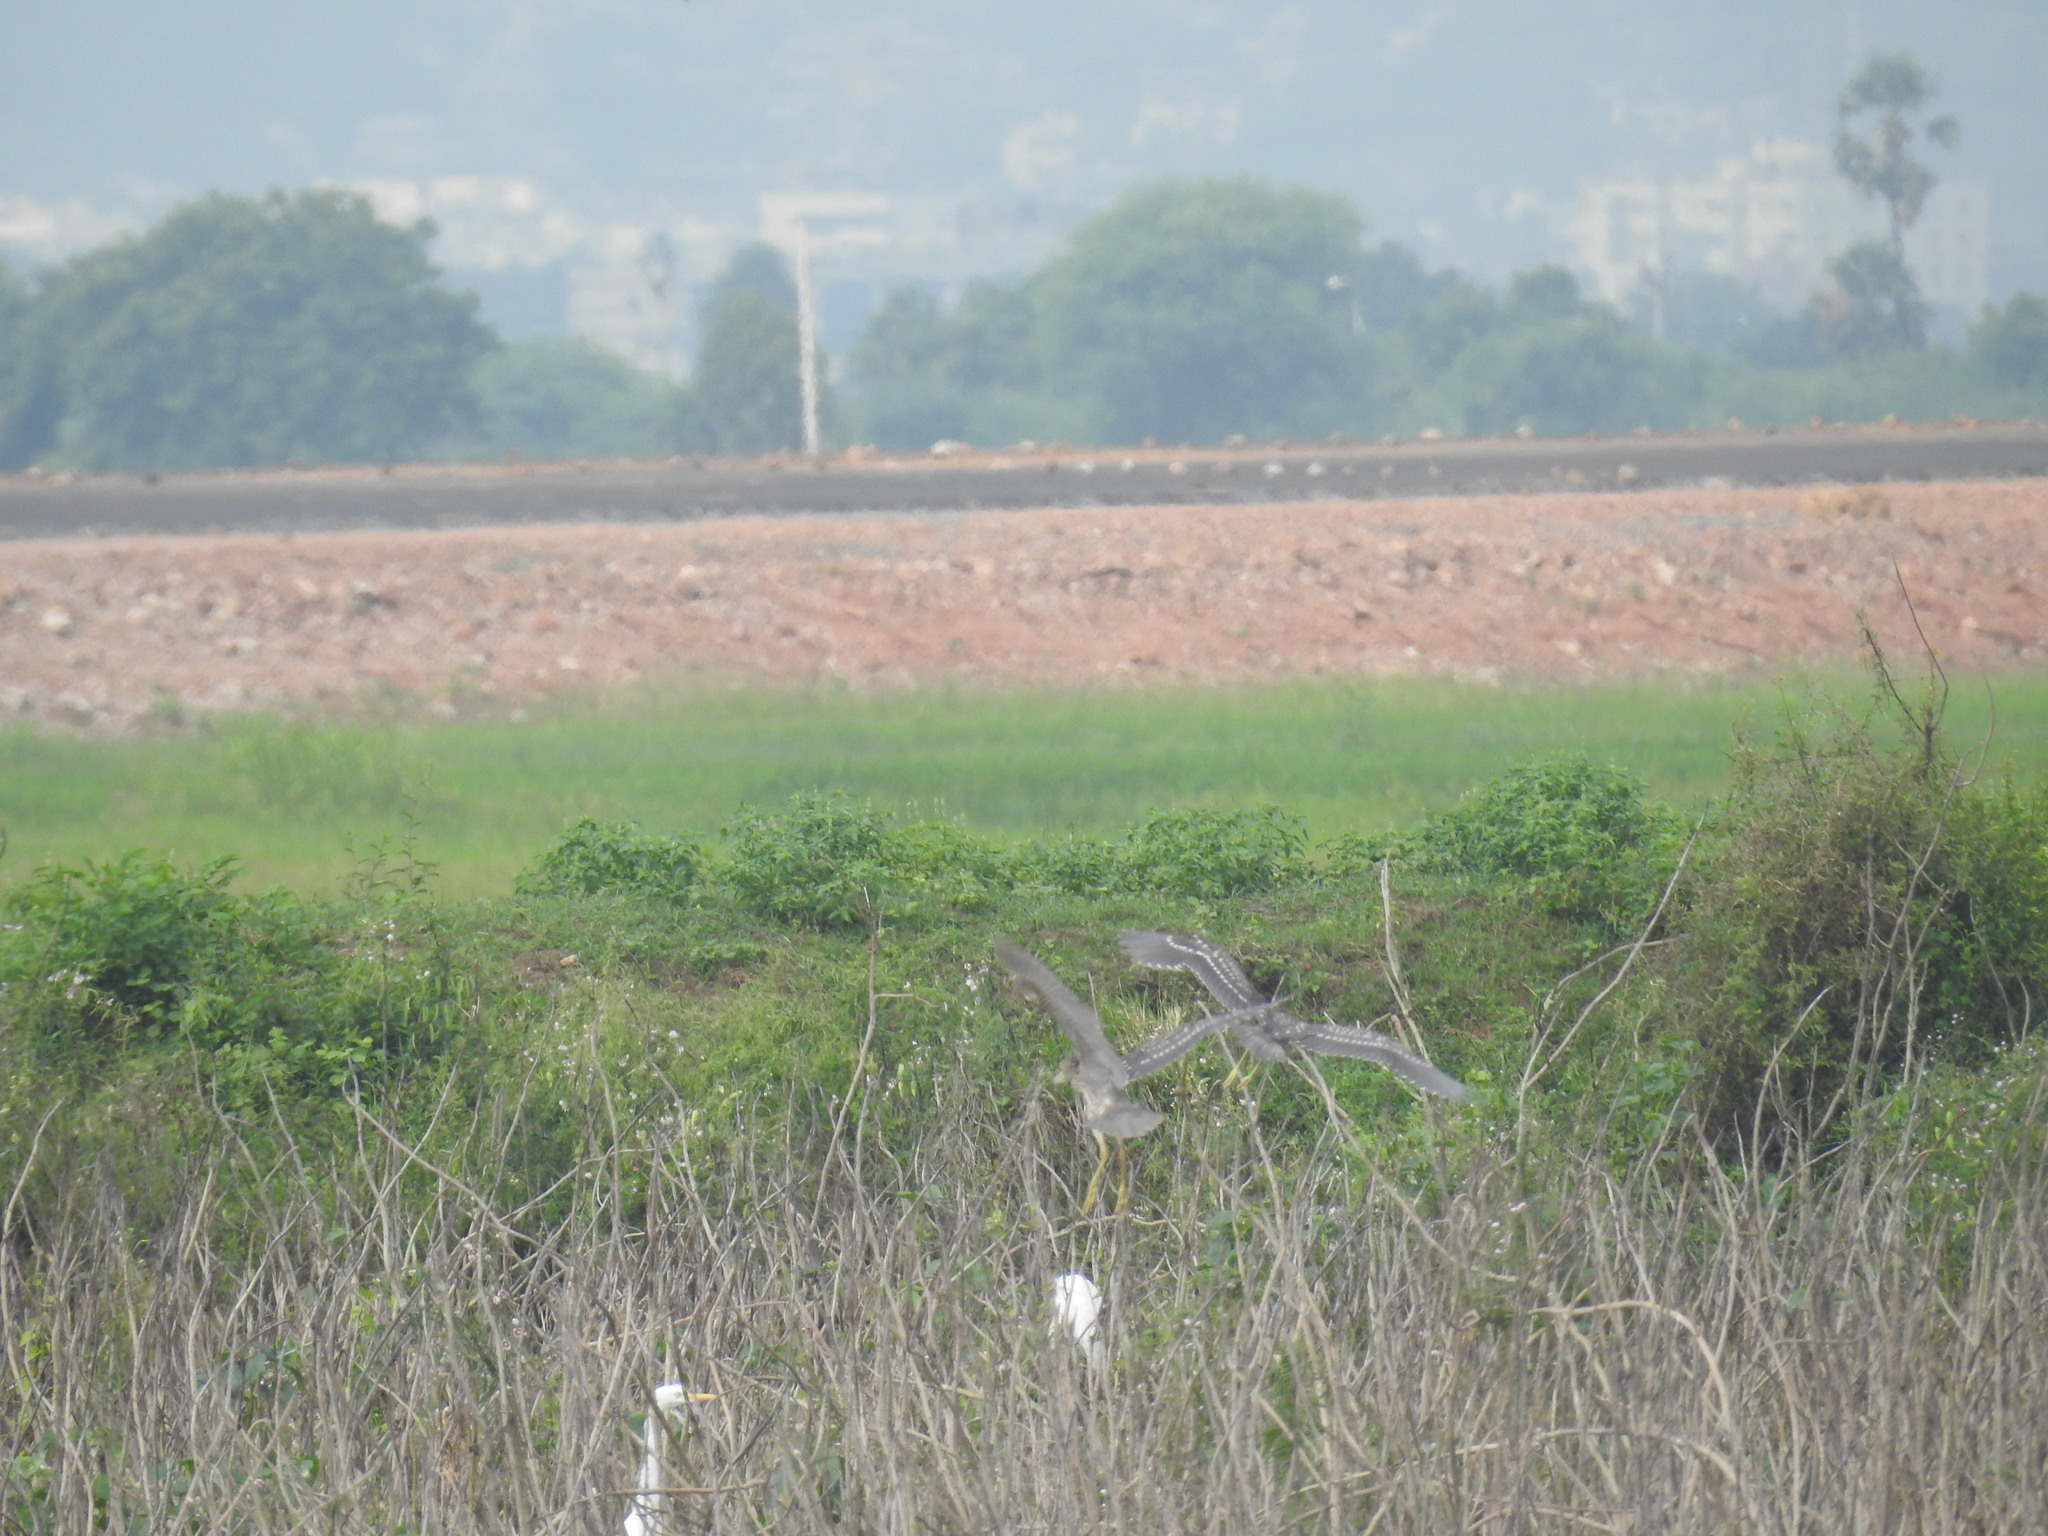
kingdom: Animalia
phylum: Chordata
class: Aves
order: Pelecaniformes
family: Ardeidae
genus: Nycticorax
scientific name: Nycticorax nycticorax
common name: Black-crowned night heron
